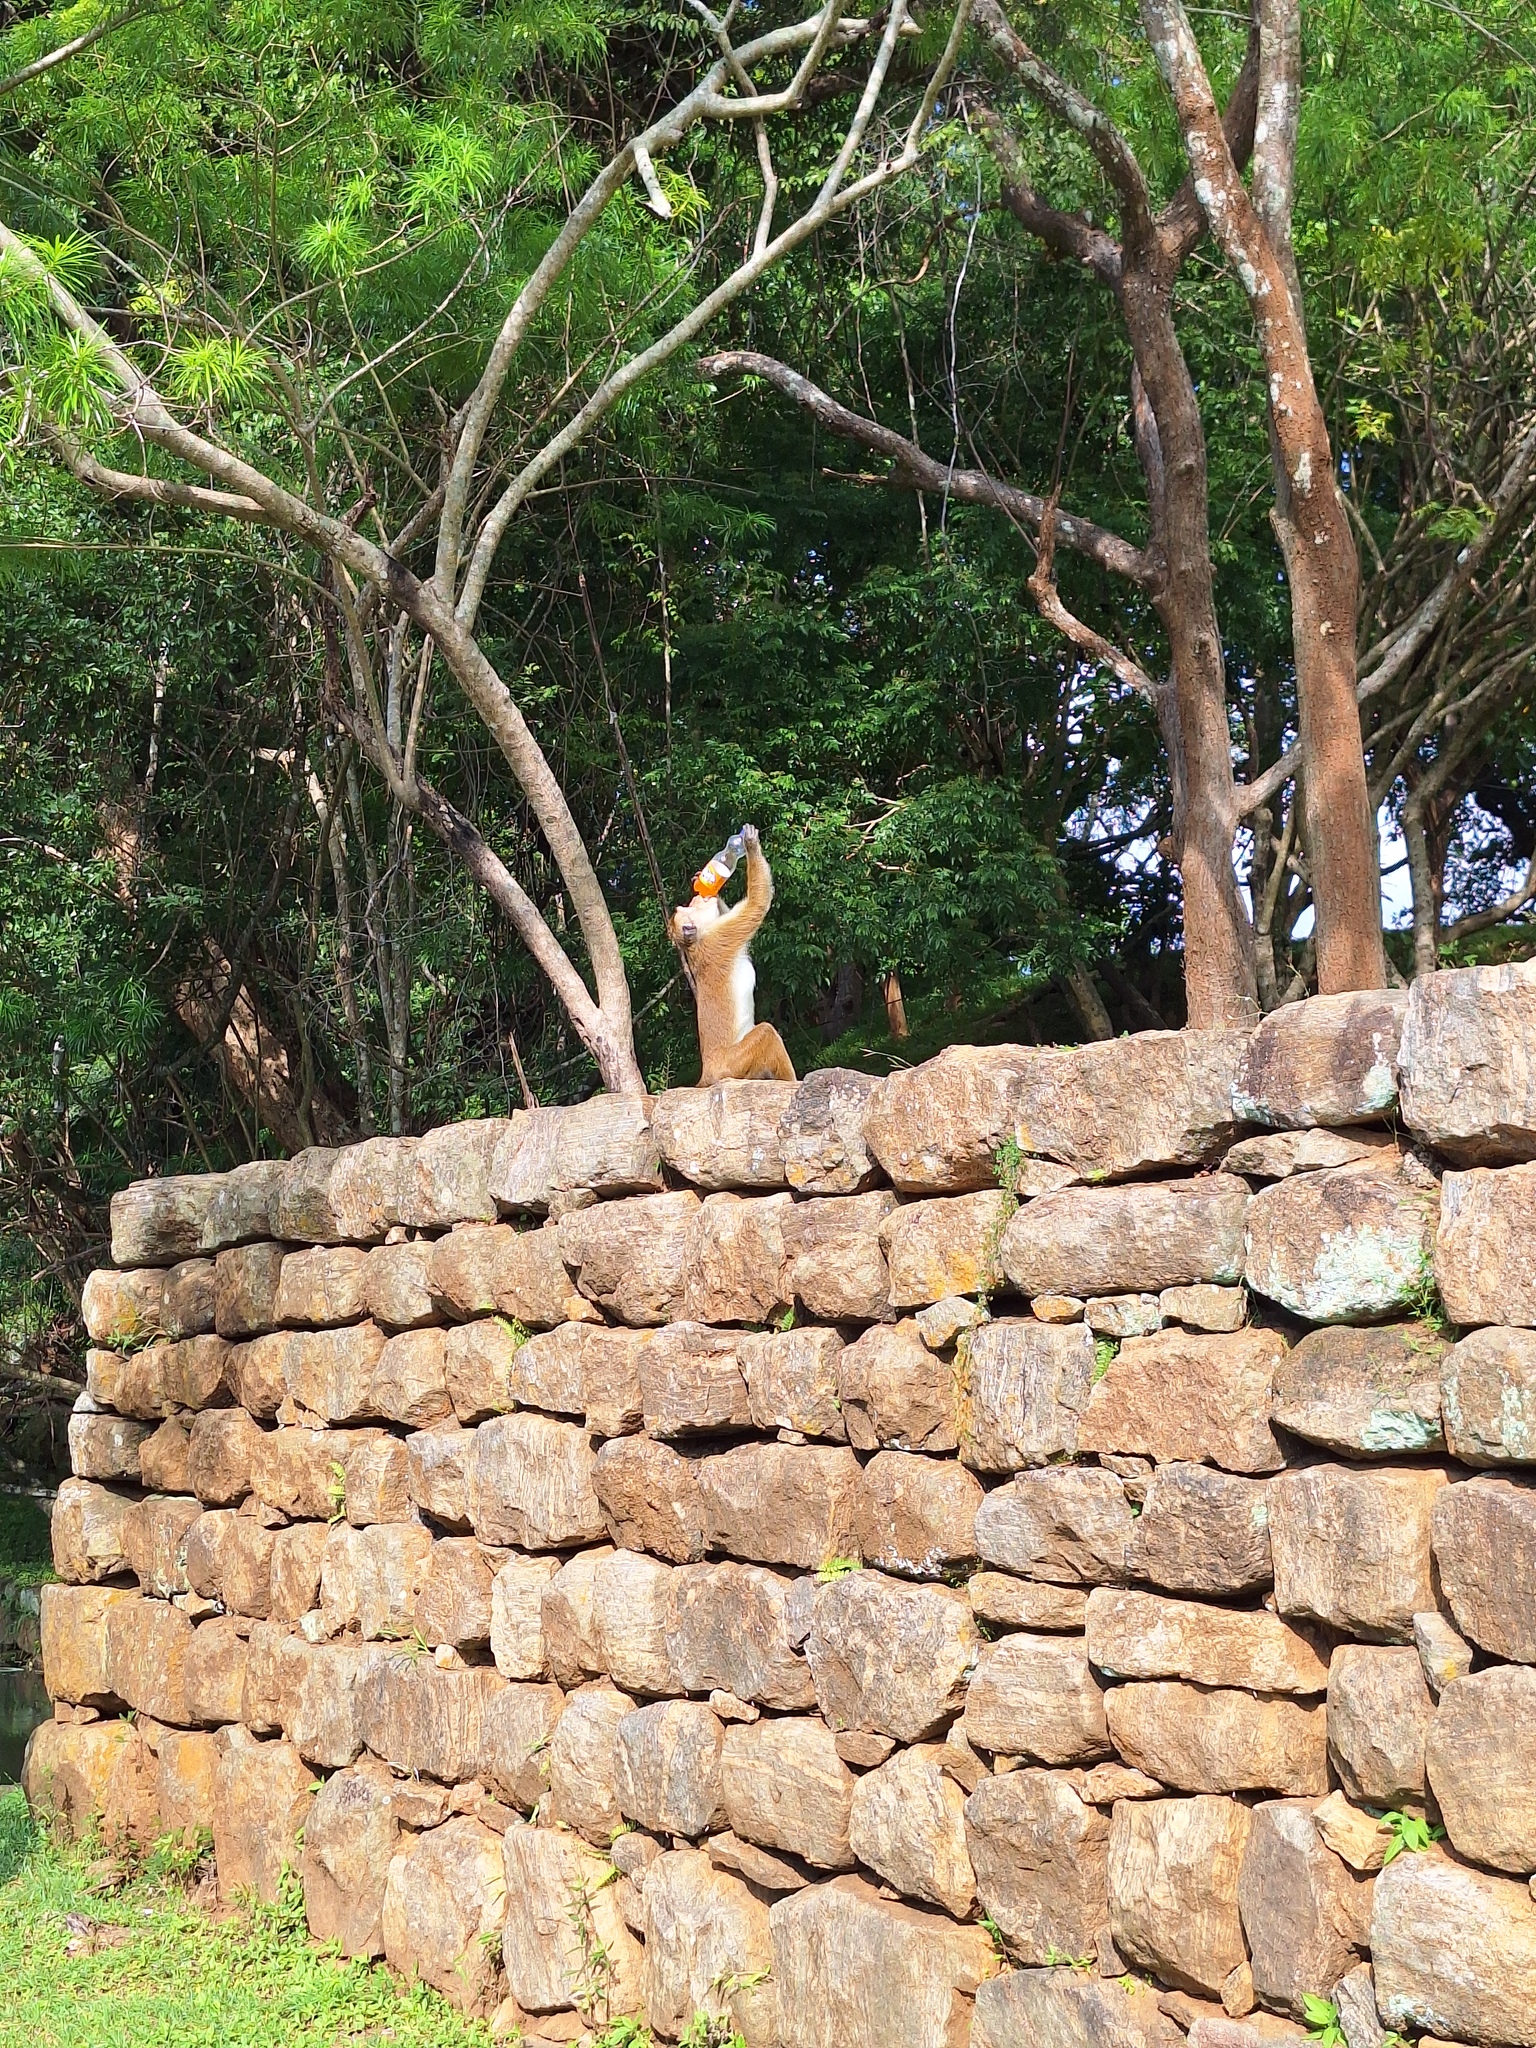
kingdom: Animalia
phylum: Chordata
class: Mammalia
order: Primates
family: Cercopithecidae
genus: Macaca
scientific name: Macaca sinica
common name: Toque macaque
